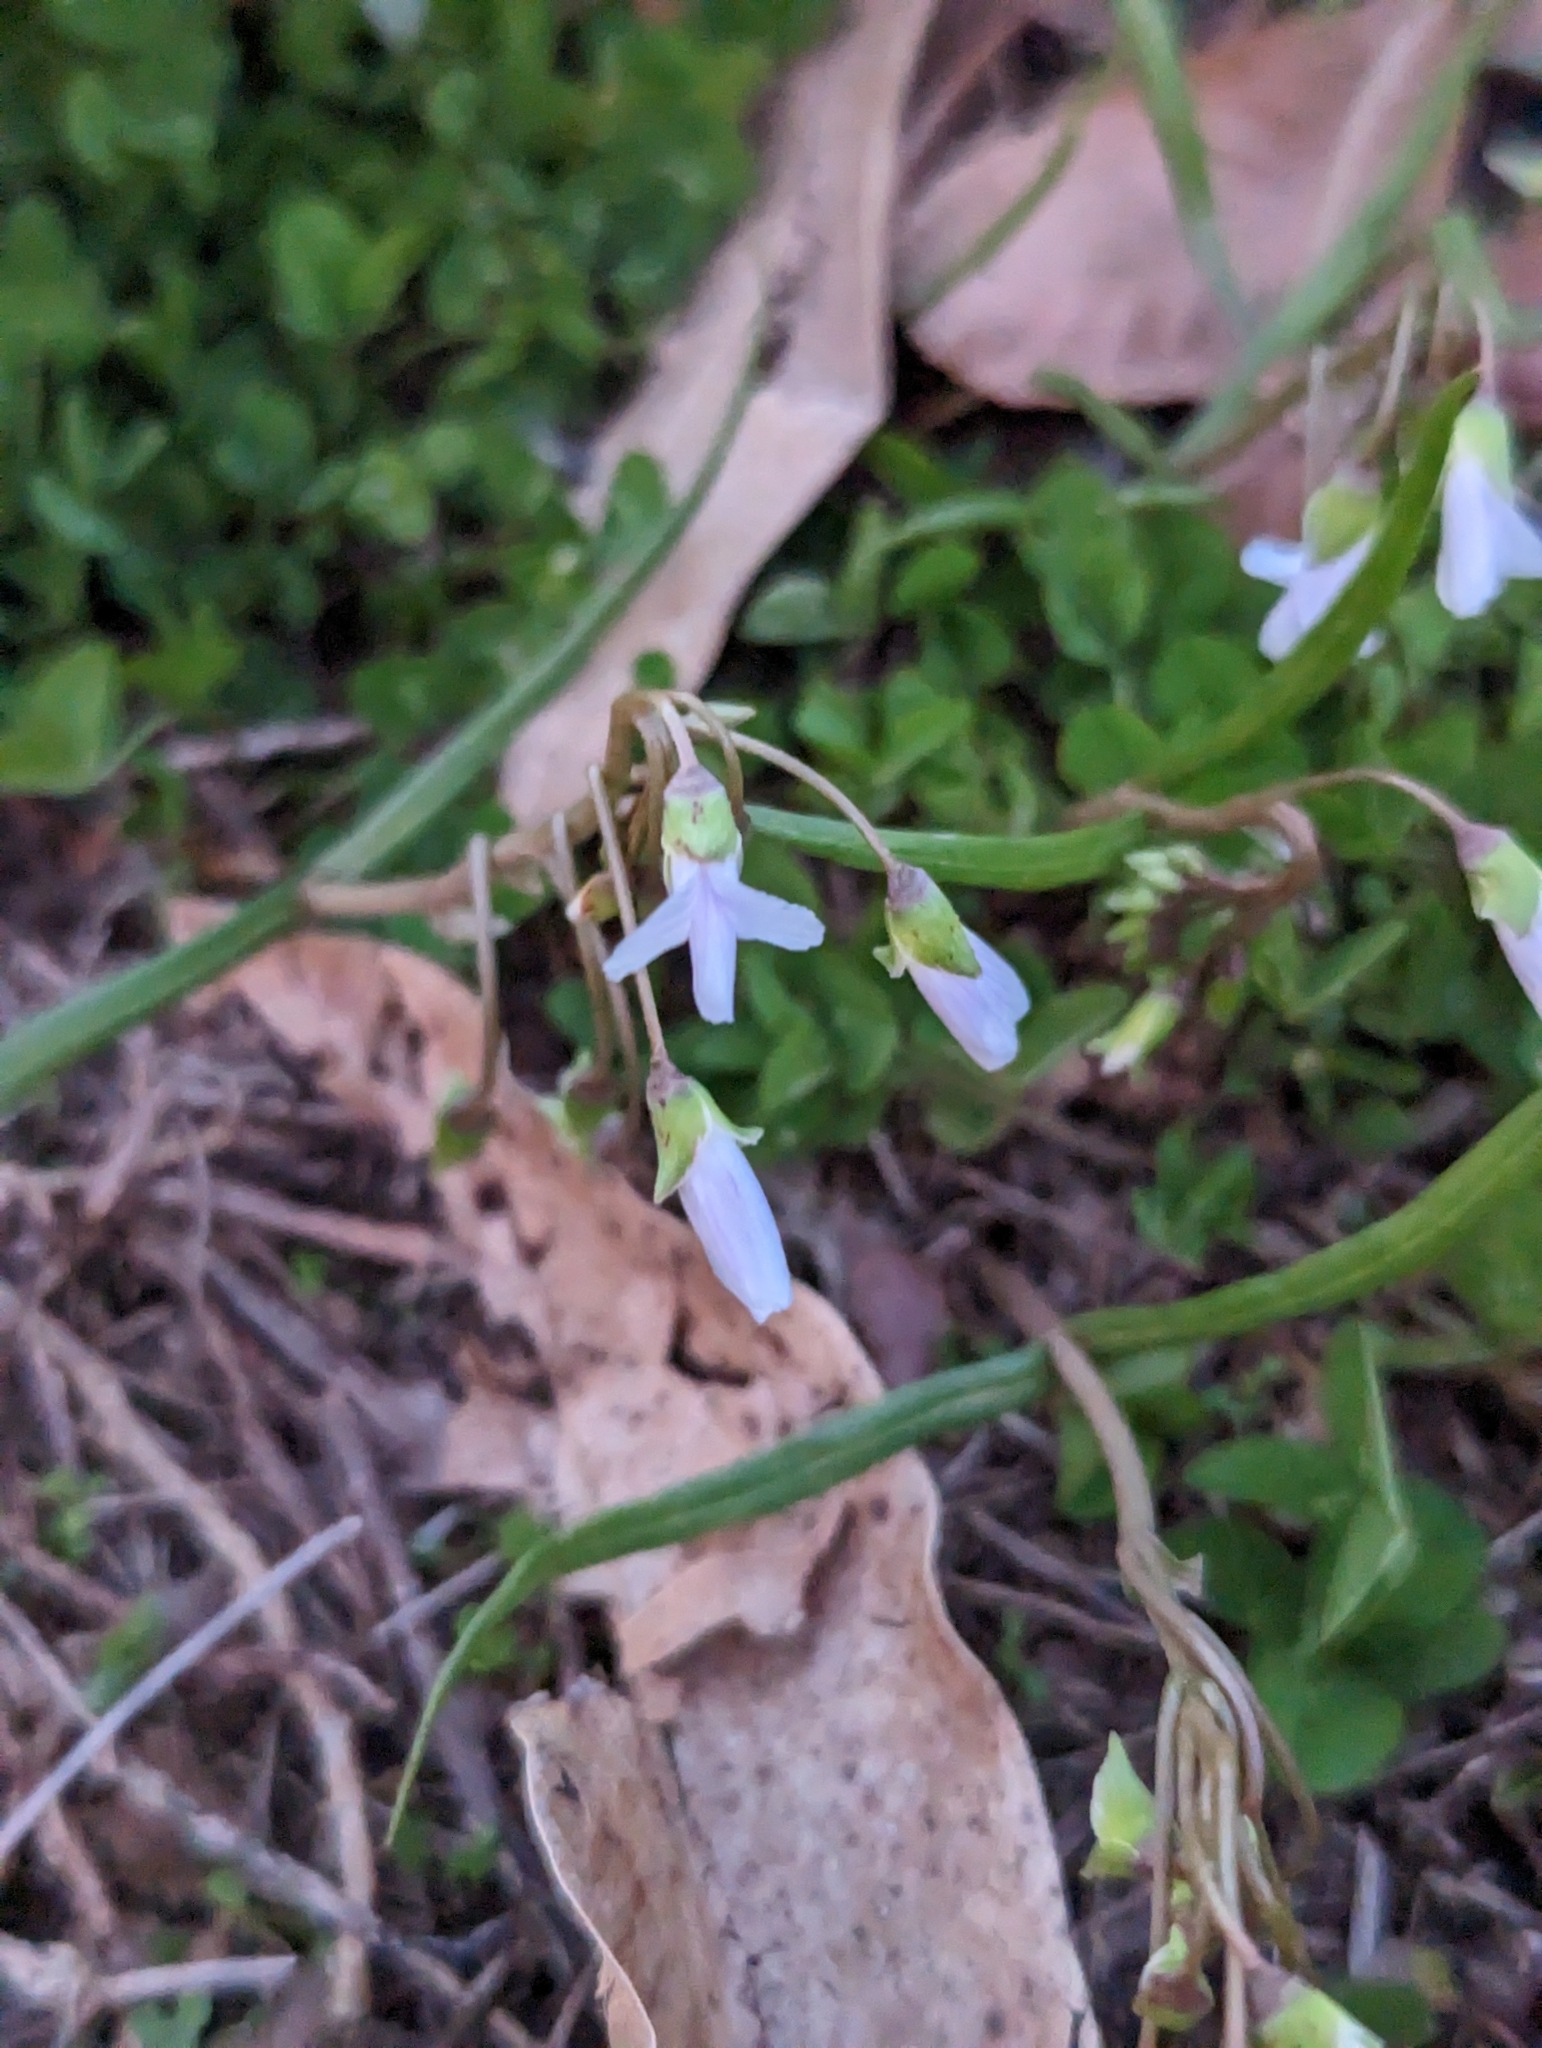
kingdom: Plantae
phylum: Tracheophyta
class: Magnoliopsida
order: Caryophyllales
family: Montiaceae
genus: Claytonia
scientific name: Claytonia virginica
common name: Virginia springbeauty
